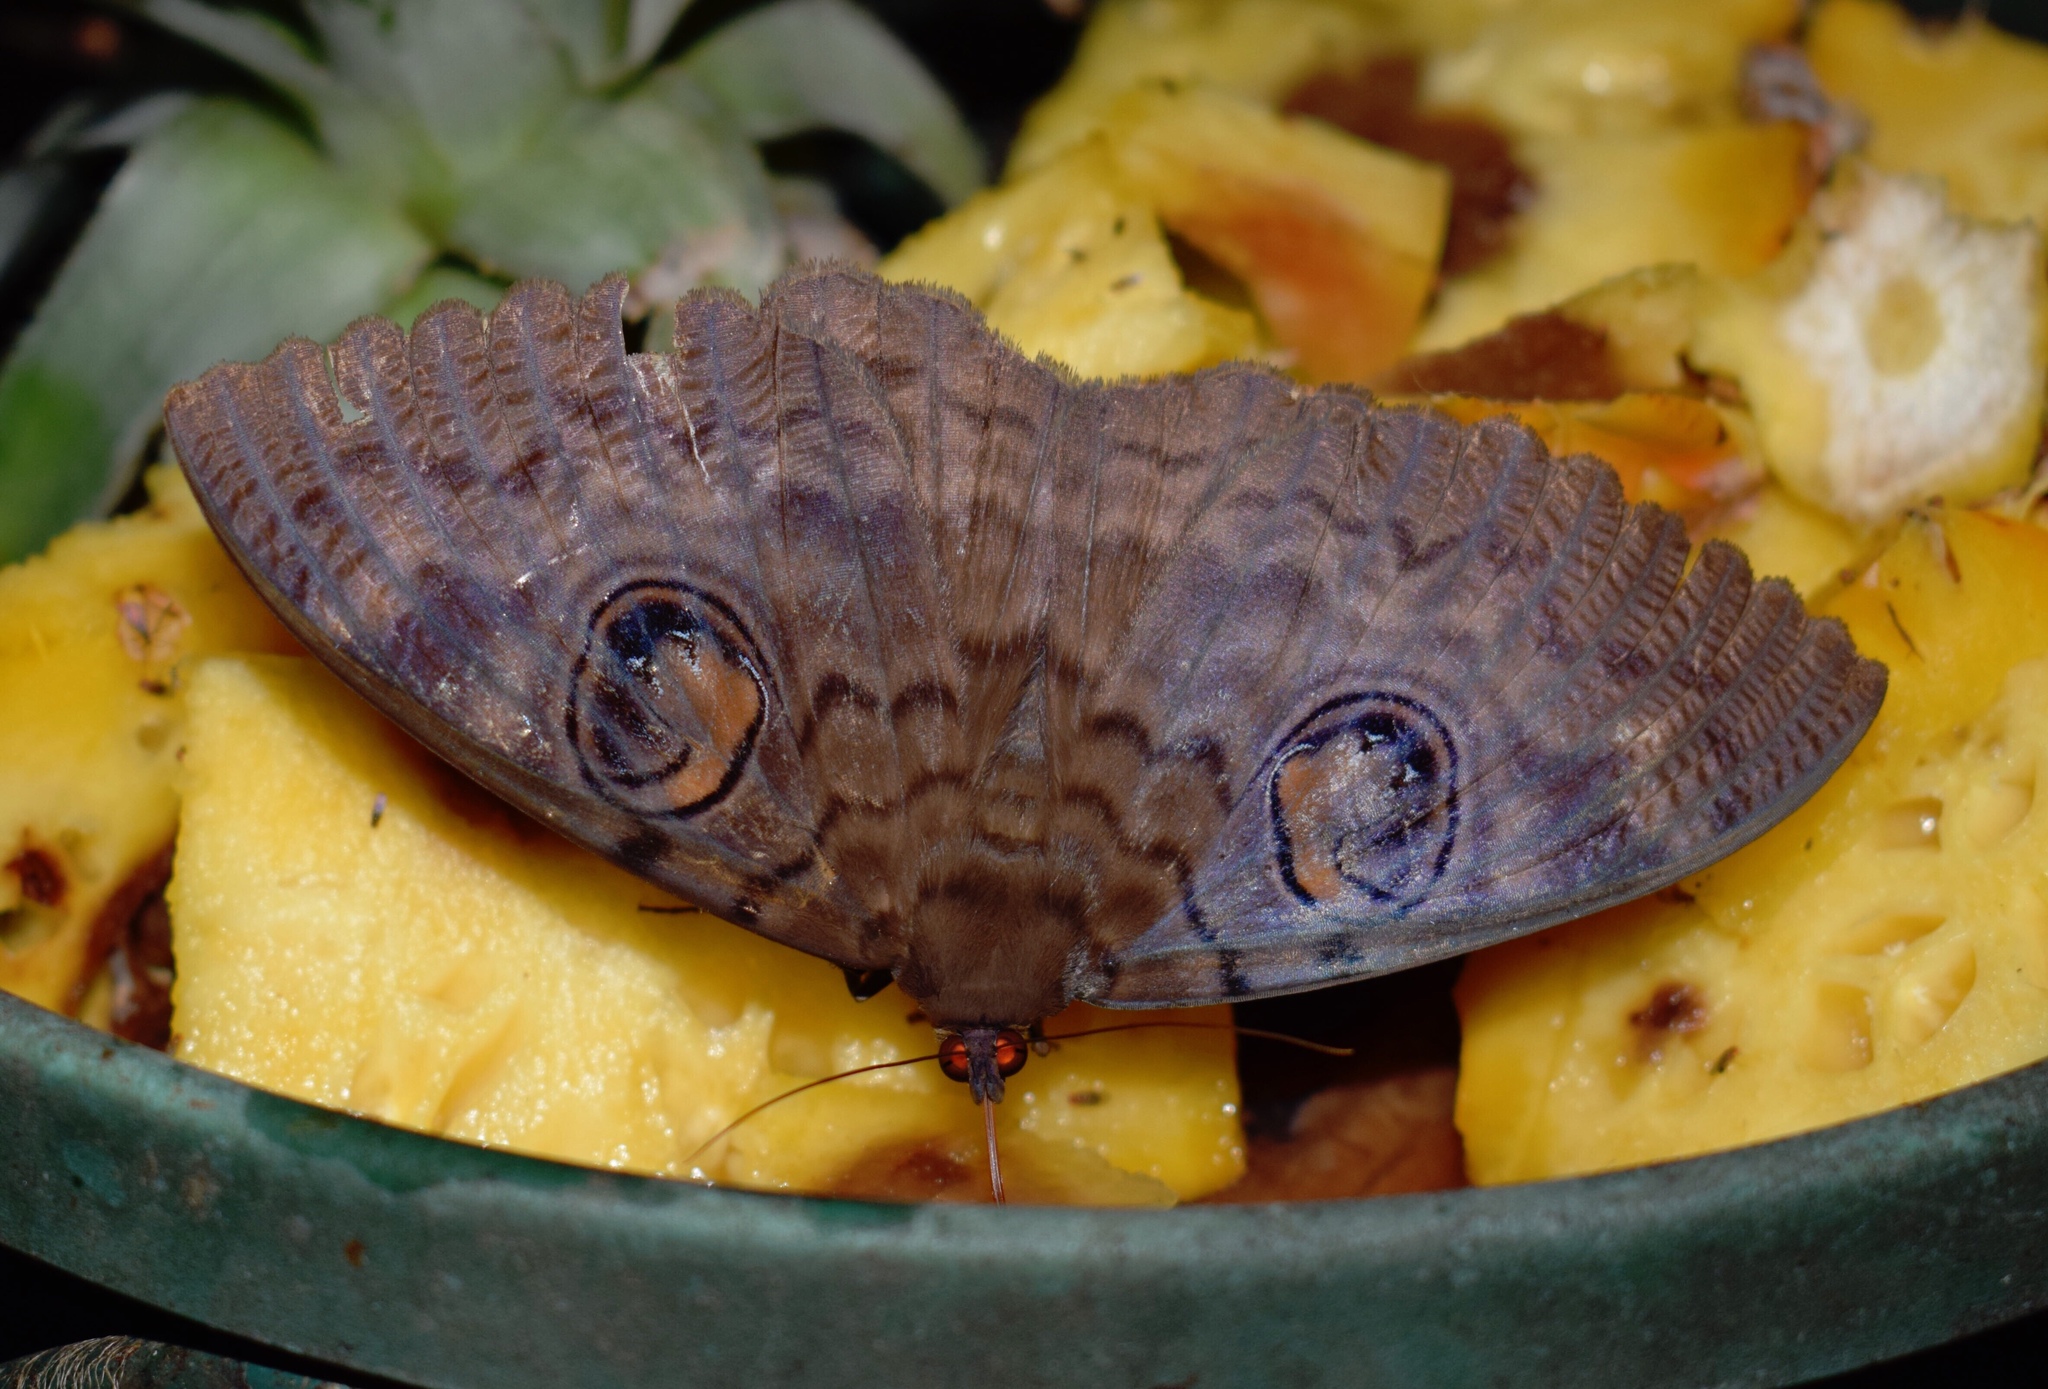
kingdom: Animalia
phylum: Arthropoda
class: Insecta
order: Lepidoptera
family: Erebidae
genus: Erebus
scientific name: Erebus walkeri
